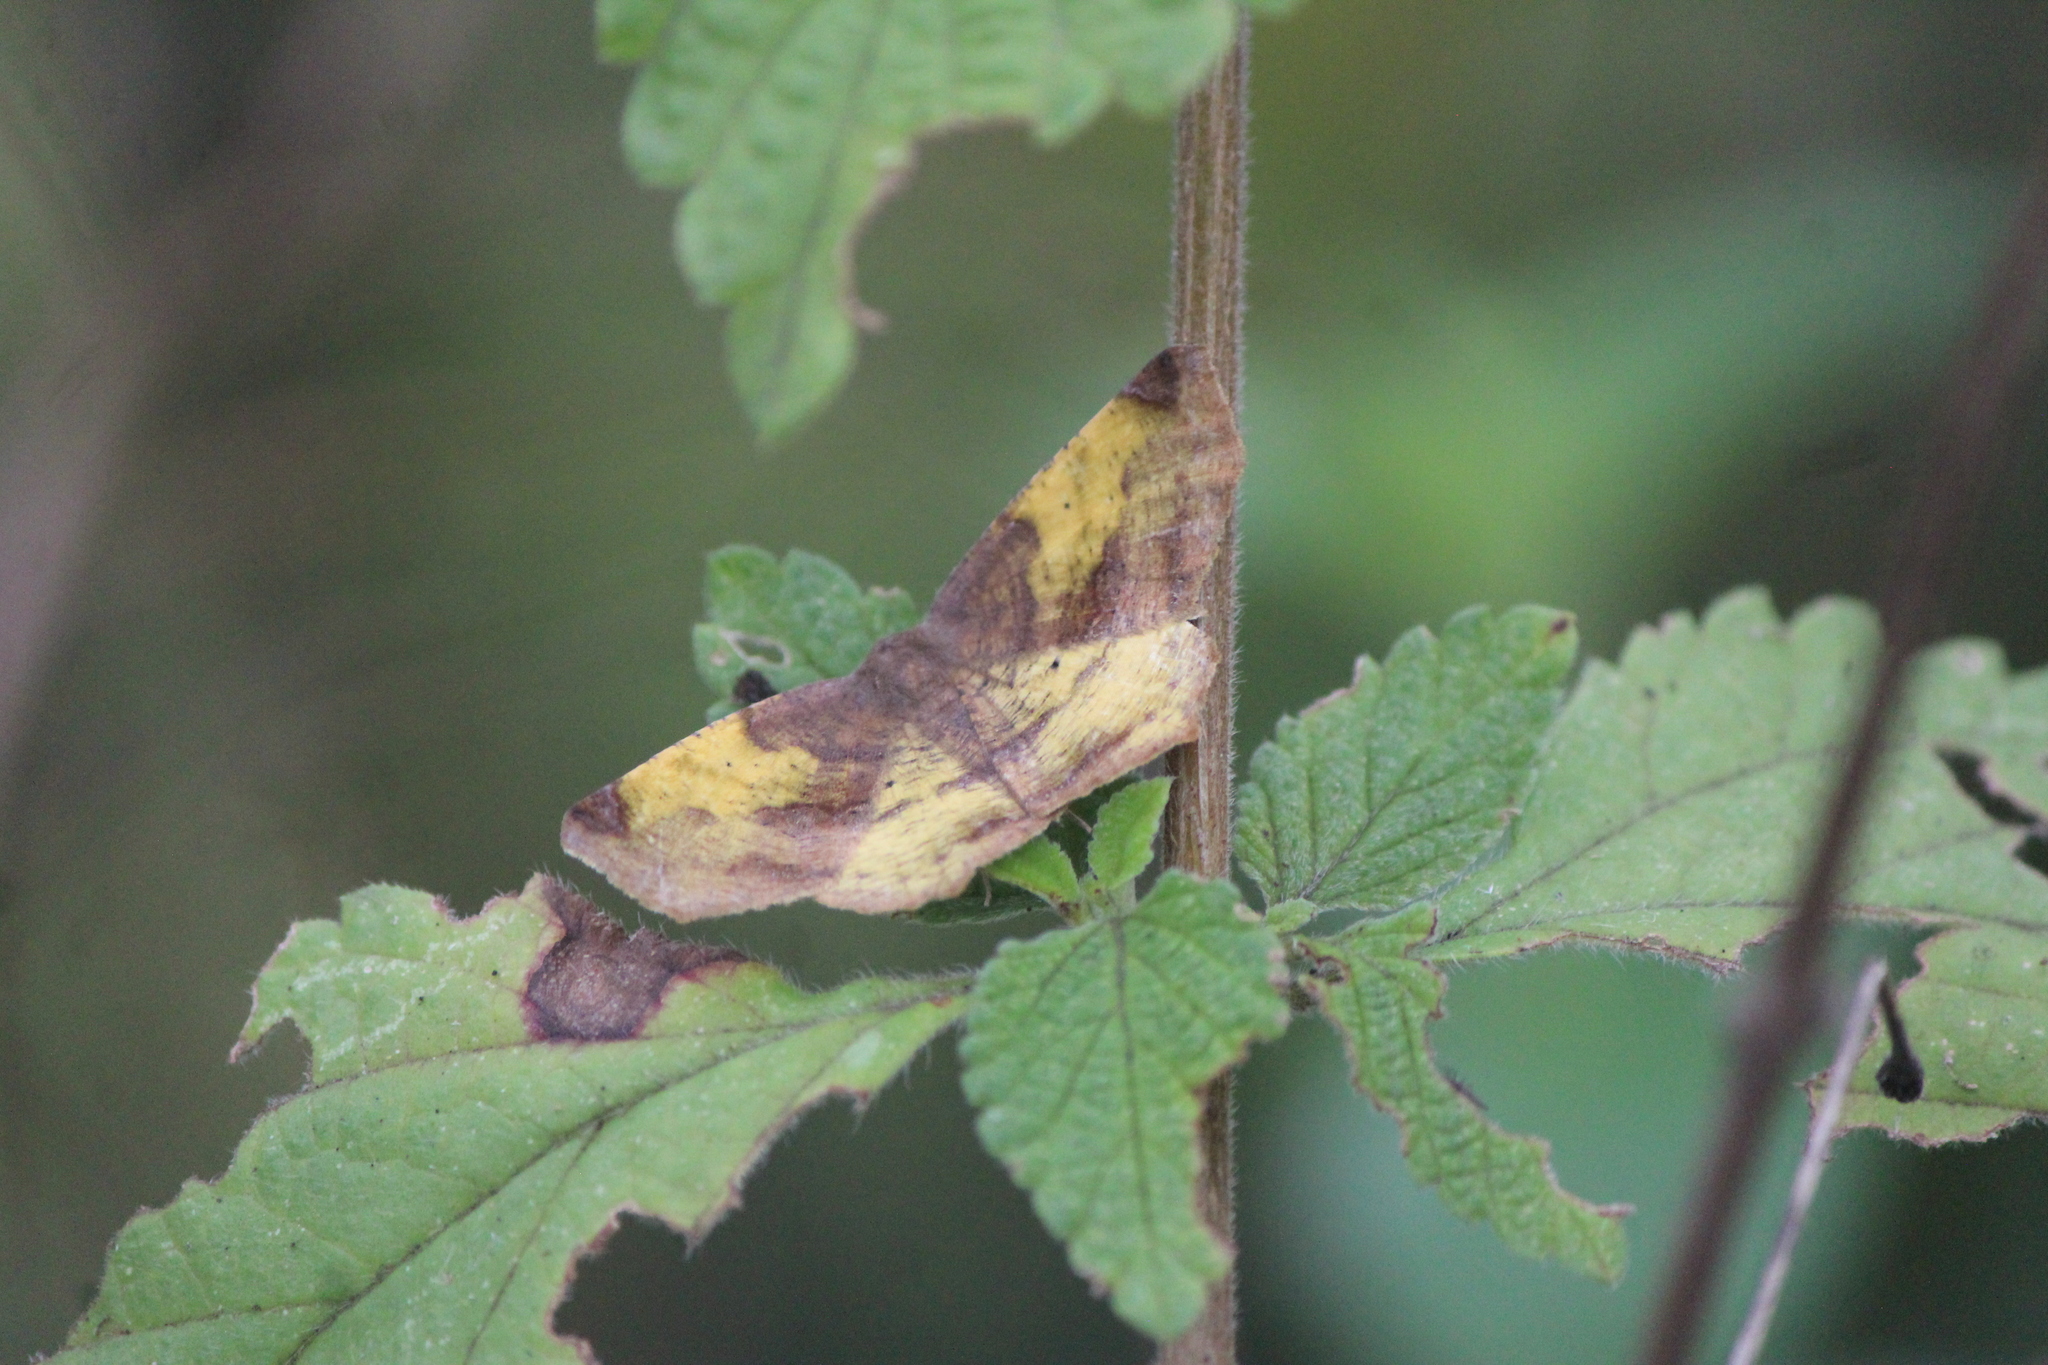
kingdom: Animalia
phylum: Arthropoda
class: Insecta
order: Lepidoptera
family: Geometridae
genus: Antepione
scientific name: Antepione thisoaria
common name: Variable antipione
